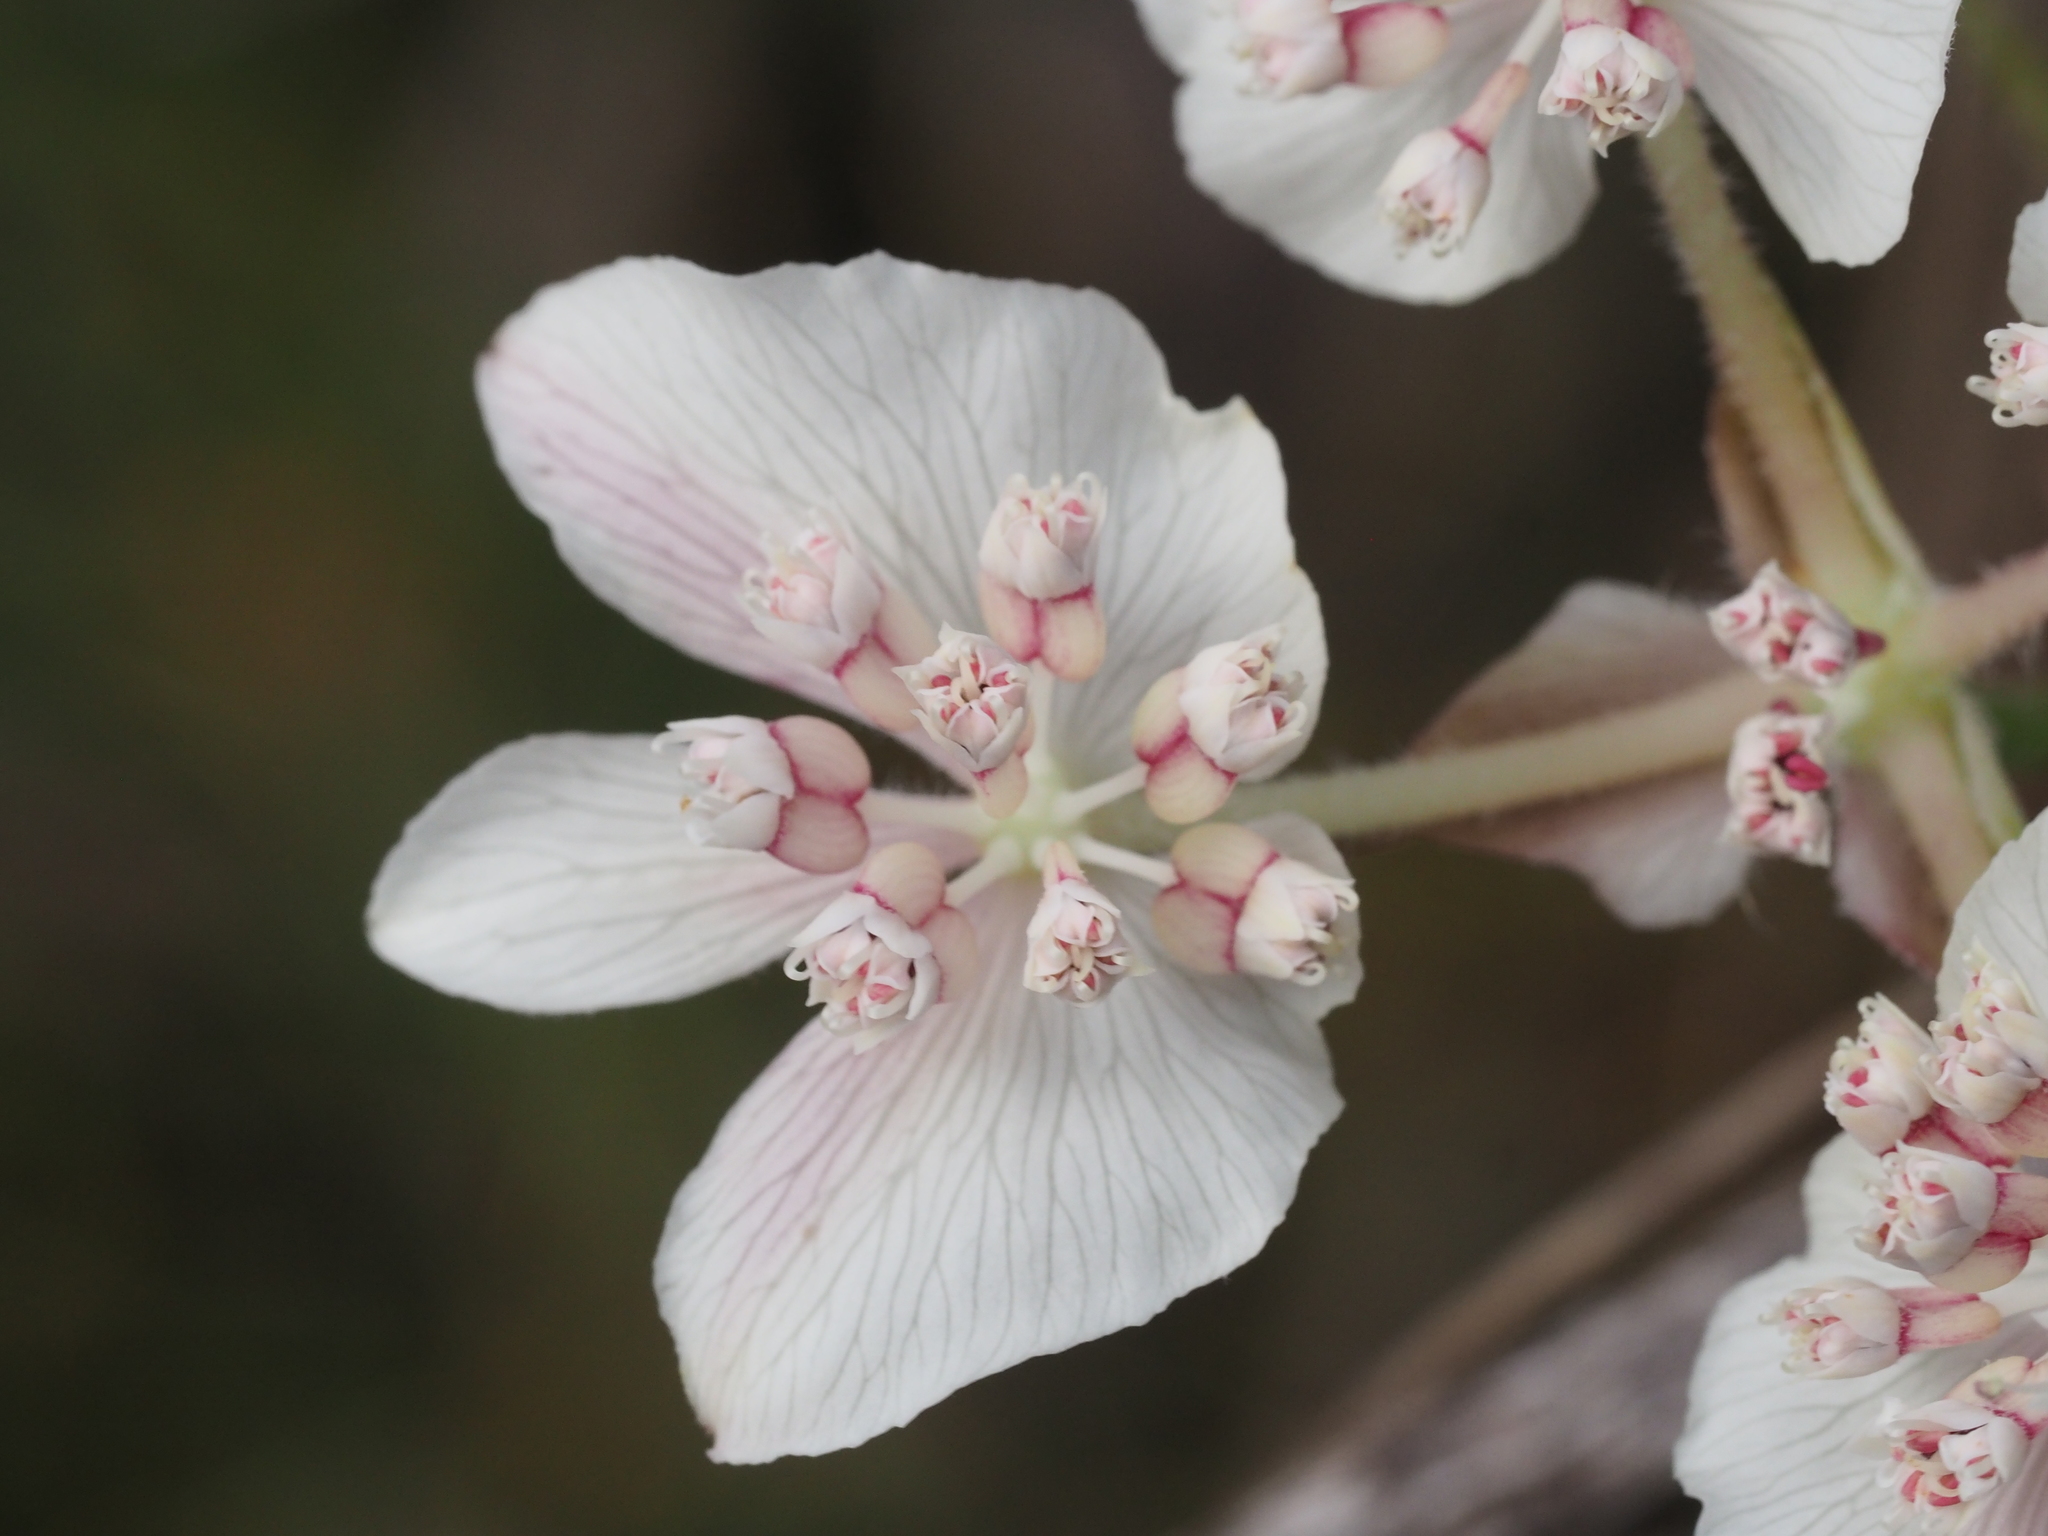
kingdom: Plantae
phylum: Tracheophyta
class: Magnoliopsida
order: Apiales
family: Apiaceae
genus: Xanthosia
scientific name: Xanthosia rotundifolia
